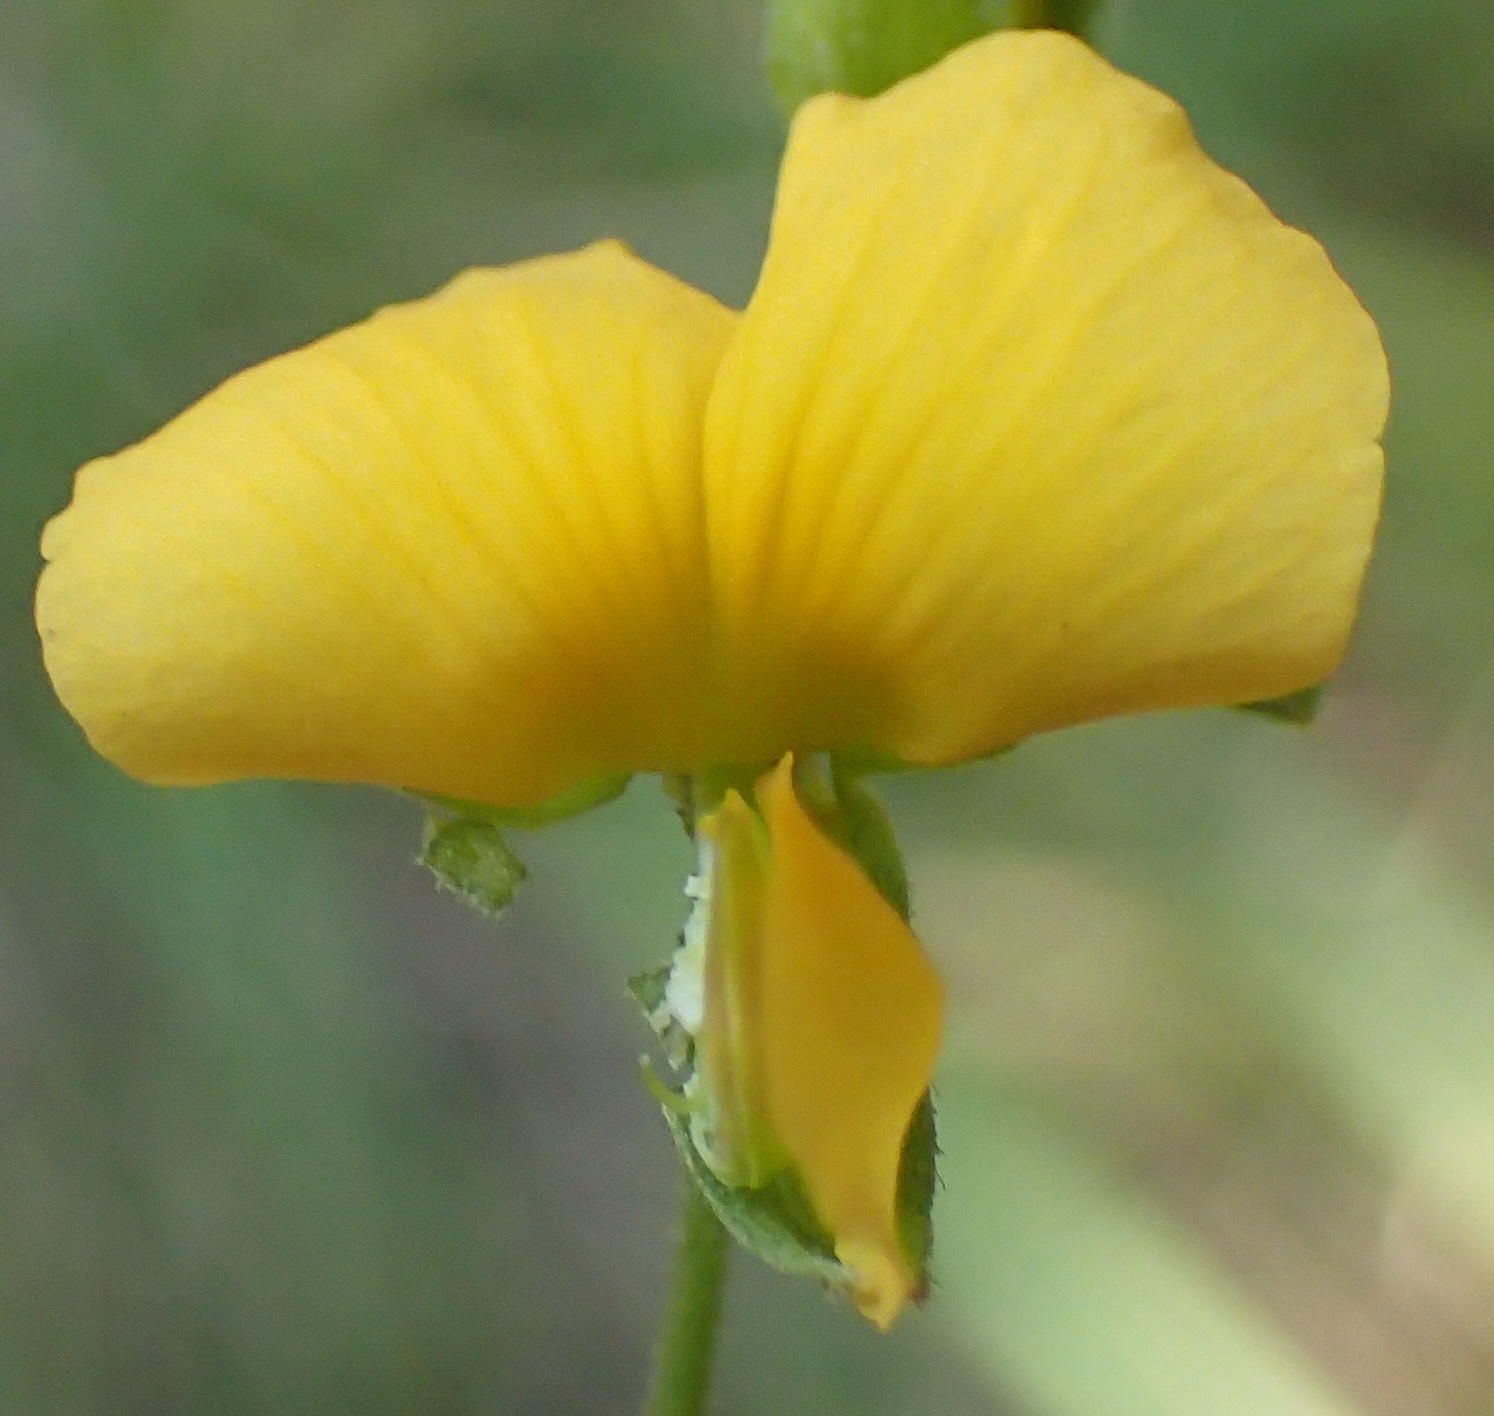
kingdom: Plantae
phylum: Tracheophyta
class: Magnoliopsida
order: Fabales
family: Fabaceae
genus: Argyrolobium
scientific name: Argyrolobium tomentosum
